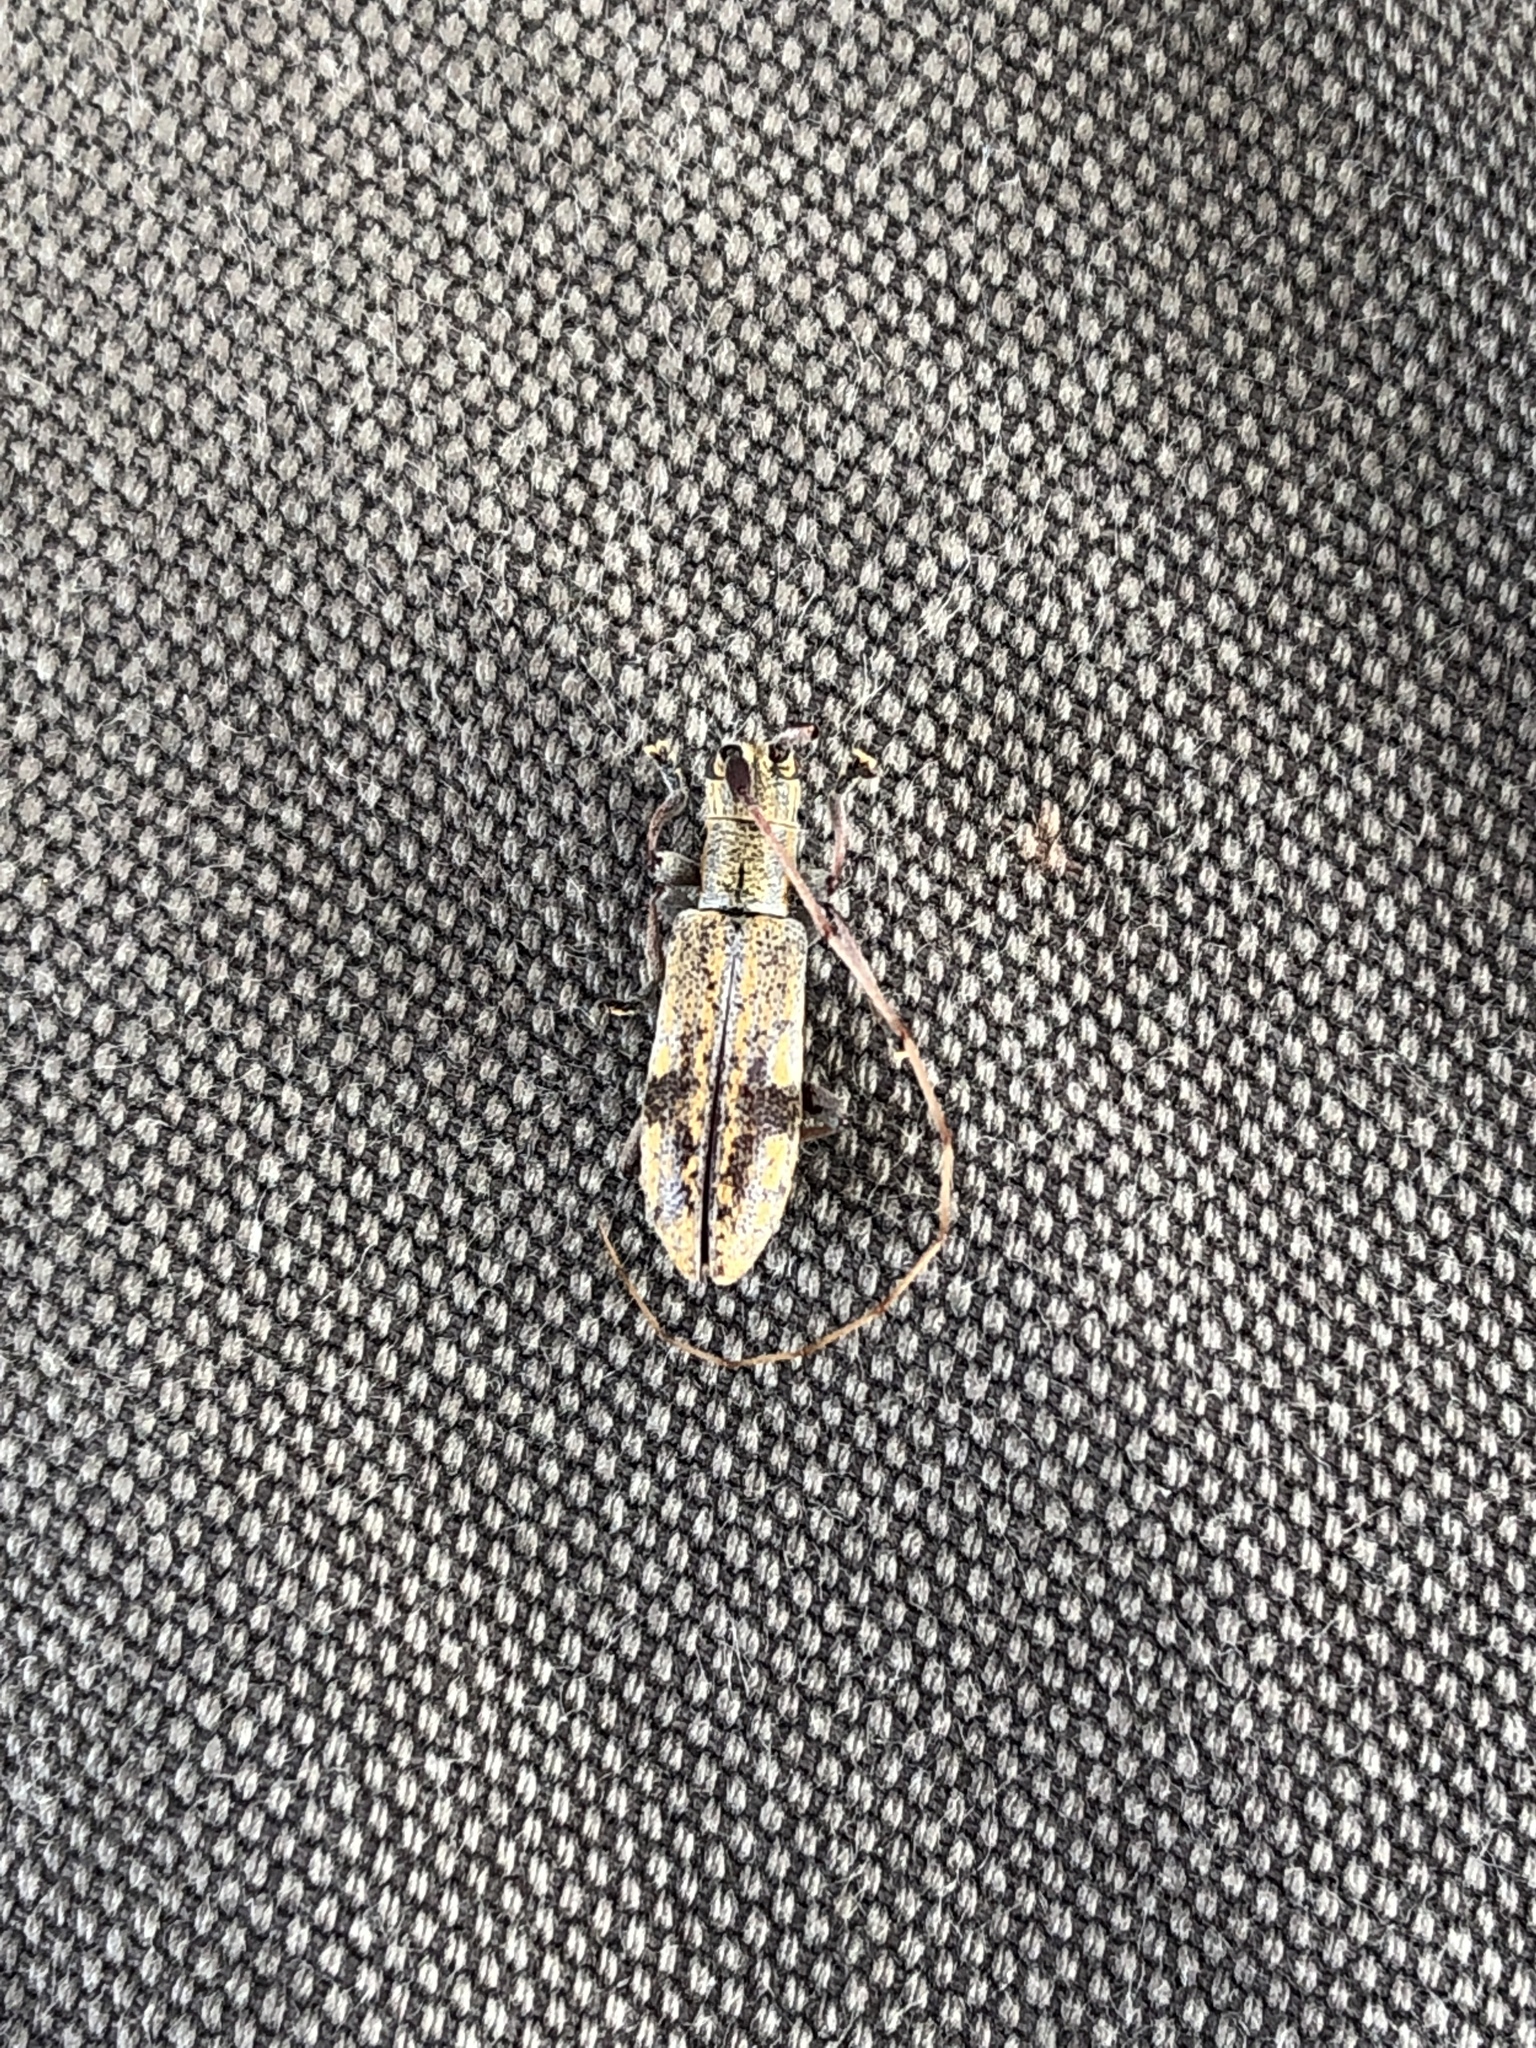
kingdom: Animalia
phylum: Arthropoda
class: Insecta
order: Coleoptera
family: Cerambycidae
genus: Dorcaschema
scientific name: Dorcaschema alternatum
